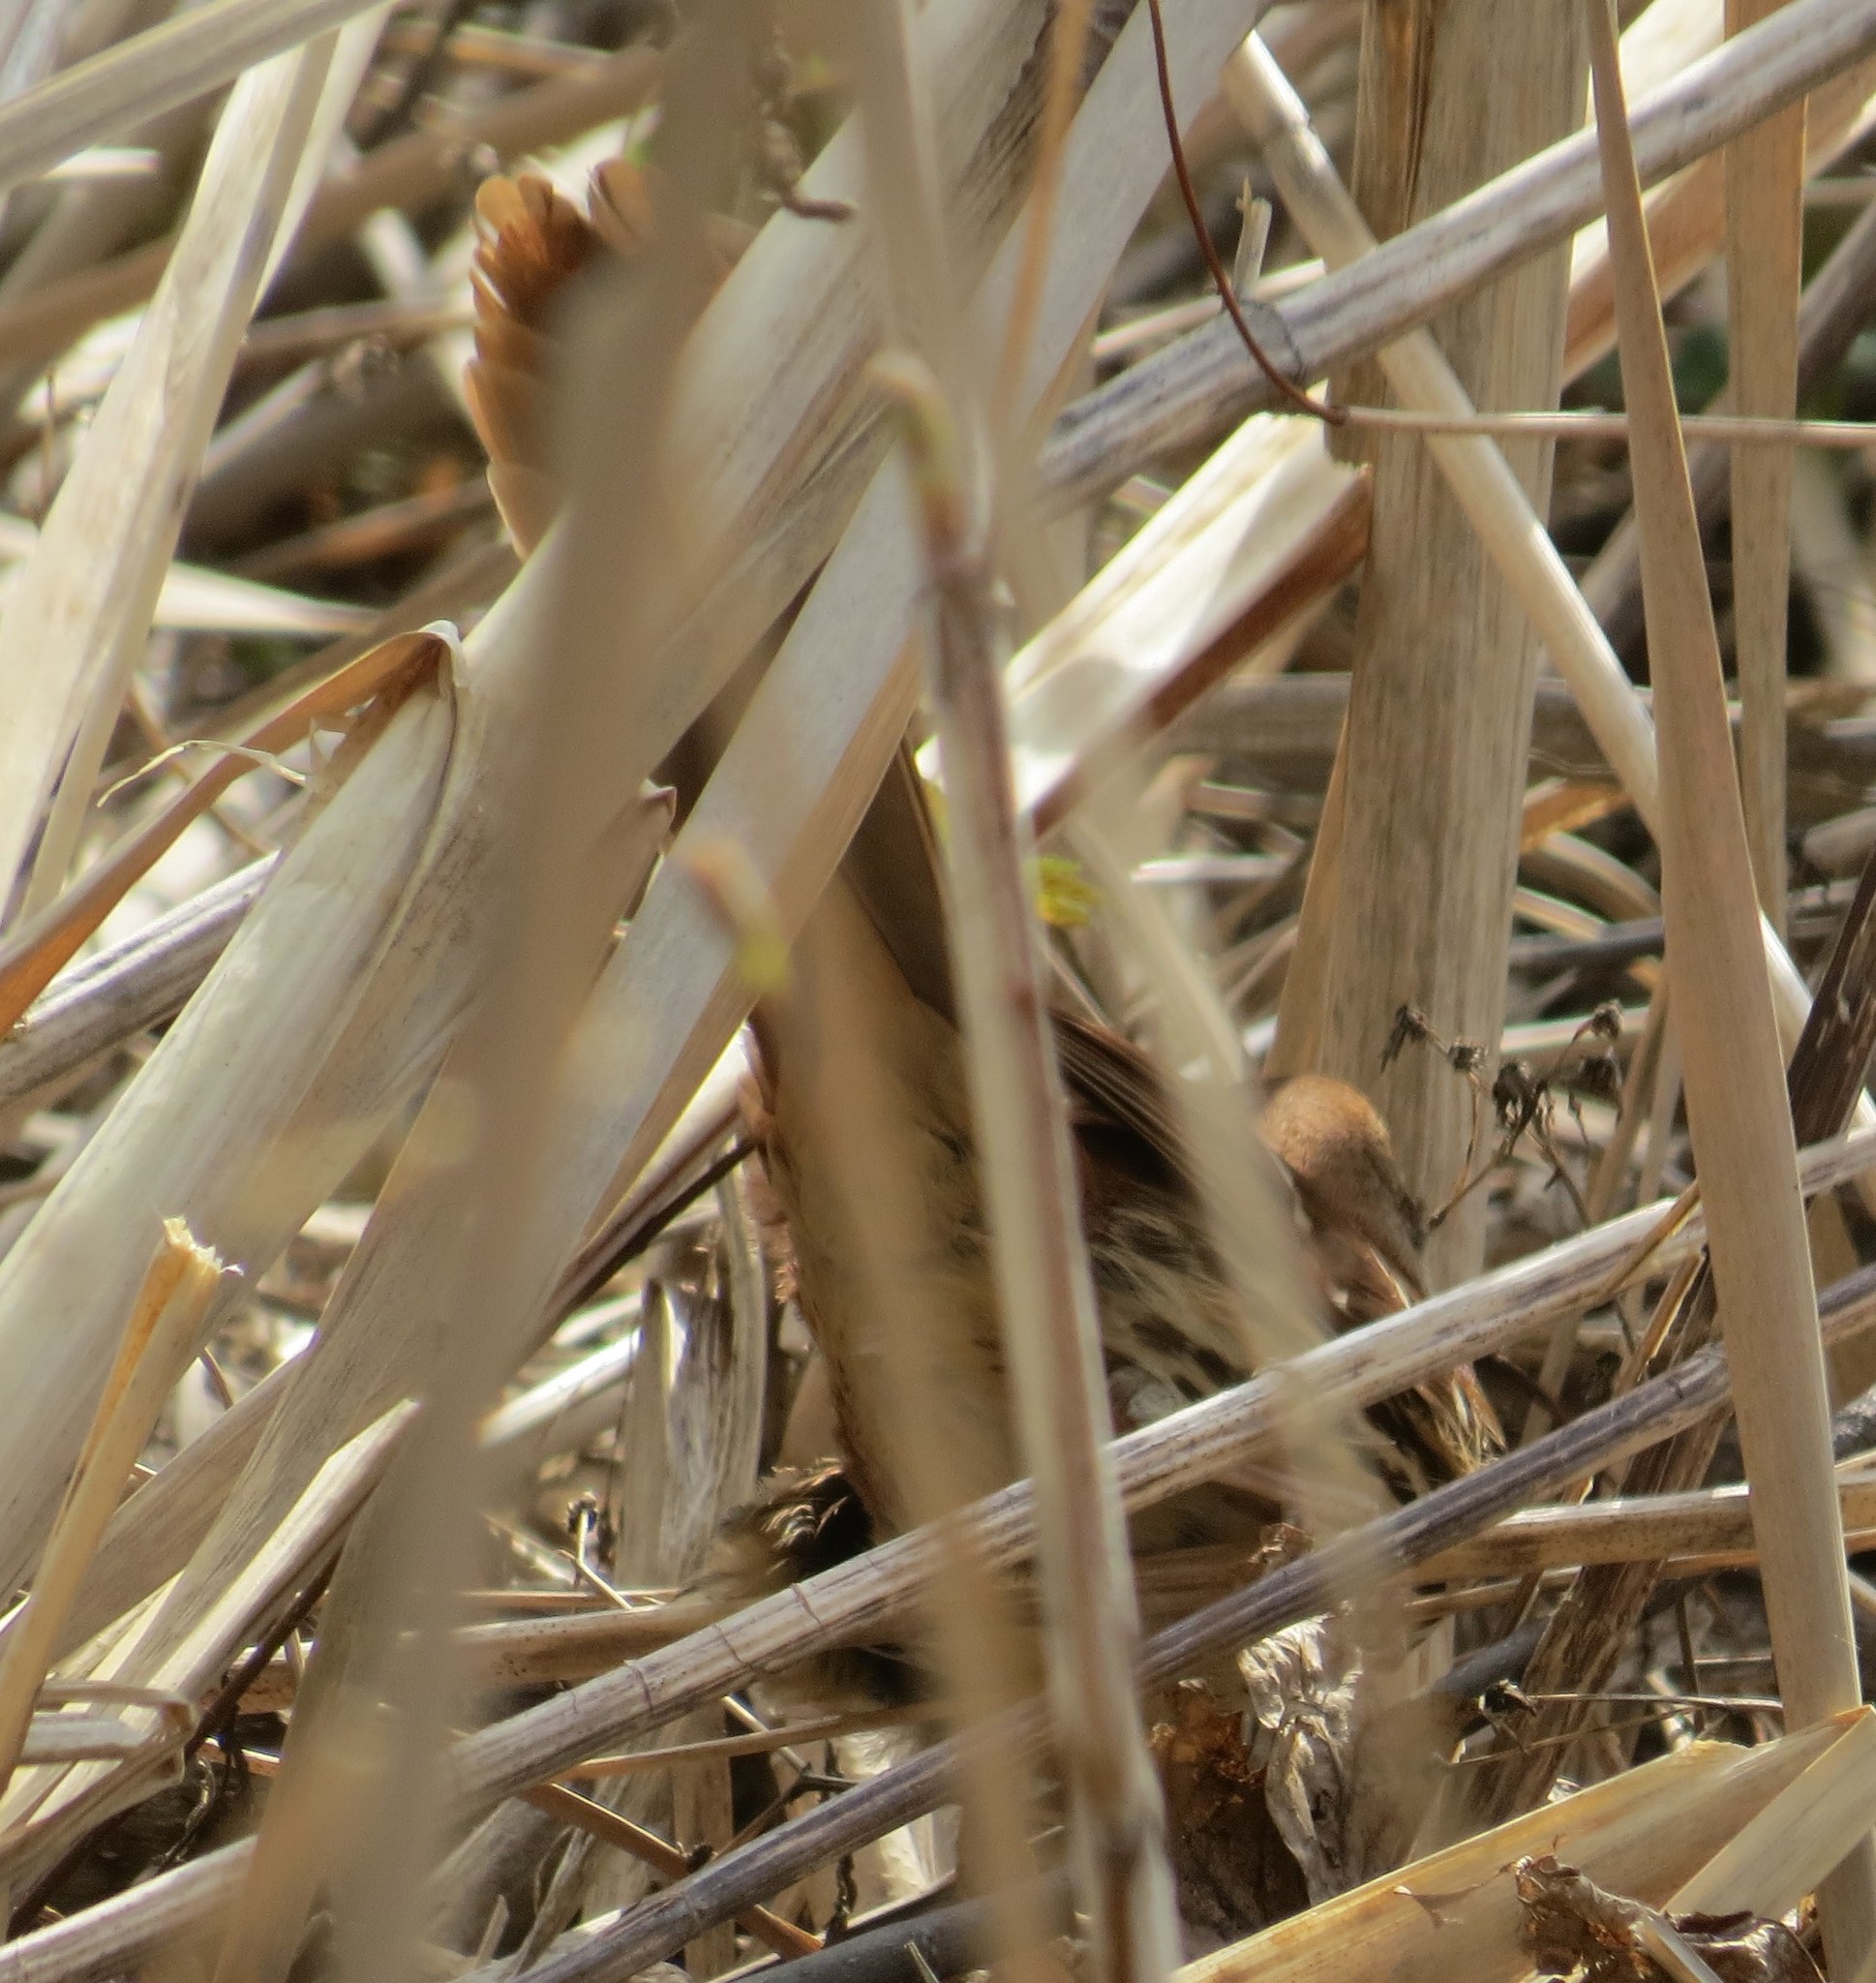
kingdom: Animalia
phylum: Chordata
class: Aves
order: Passeriformes
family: Mimidae
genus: Toxostoma
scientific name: Toxostoma rufum
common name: Brown thrasher
